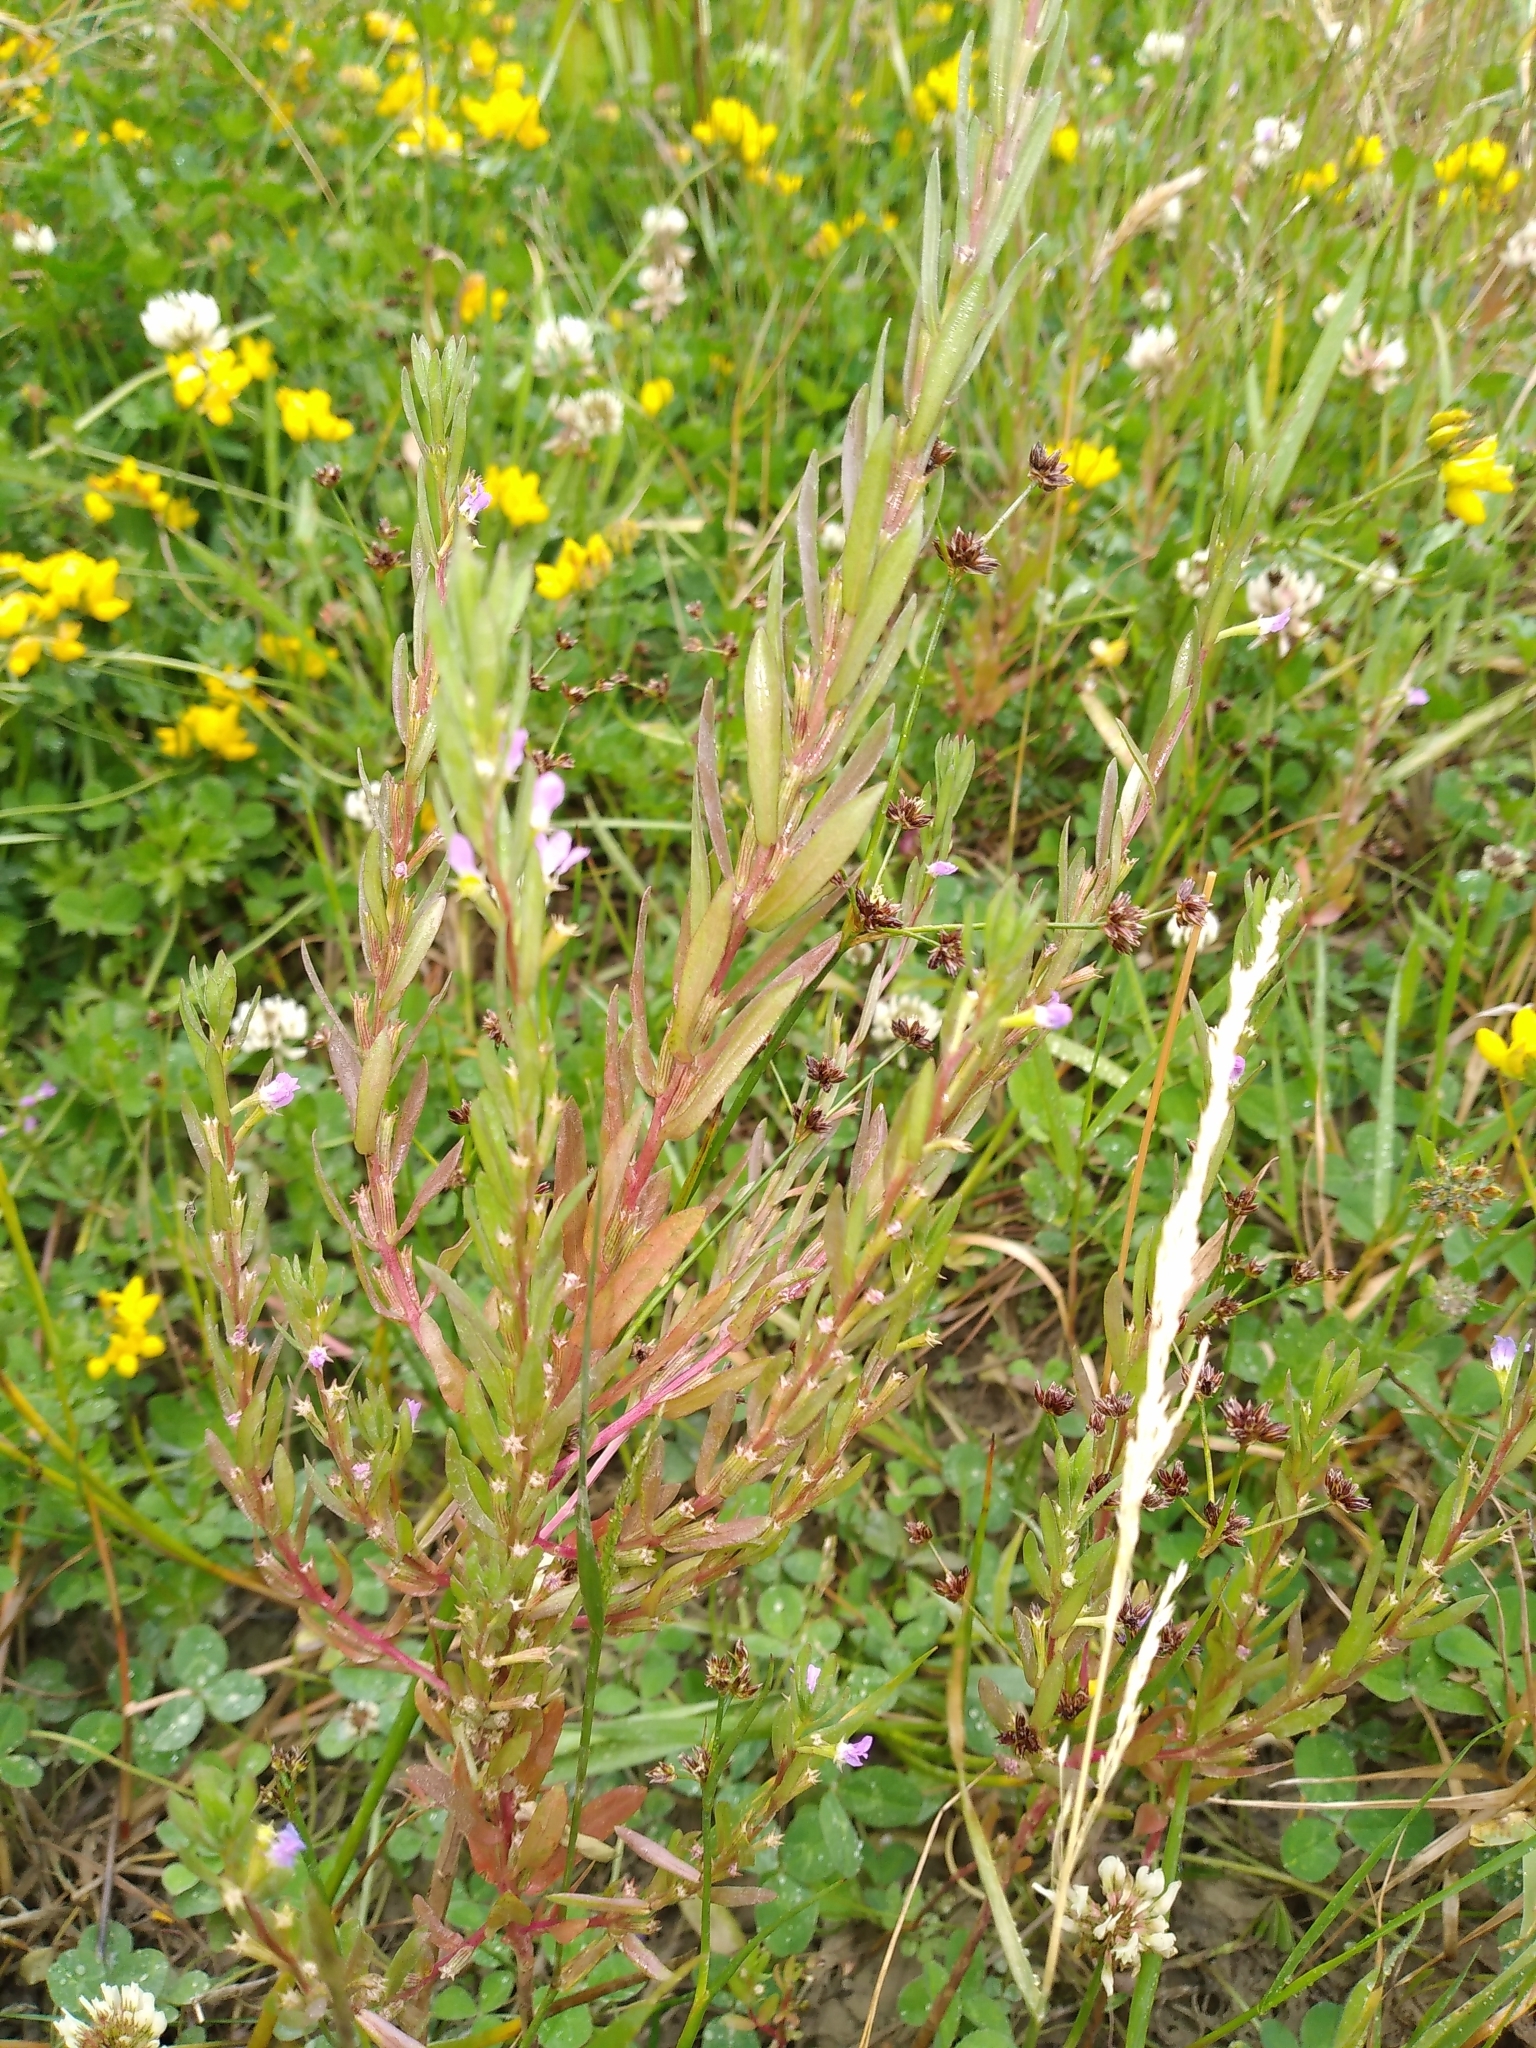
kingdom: Plantae
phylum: Tracheophyta
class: Magnoliopsida
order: Myrtales
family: Lythraceae
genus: Lythrum
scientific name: Lythrum hyssopifolia
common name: Grass-poly
